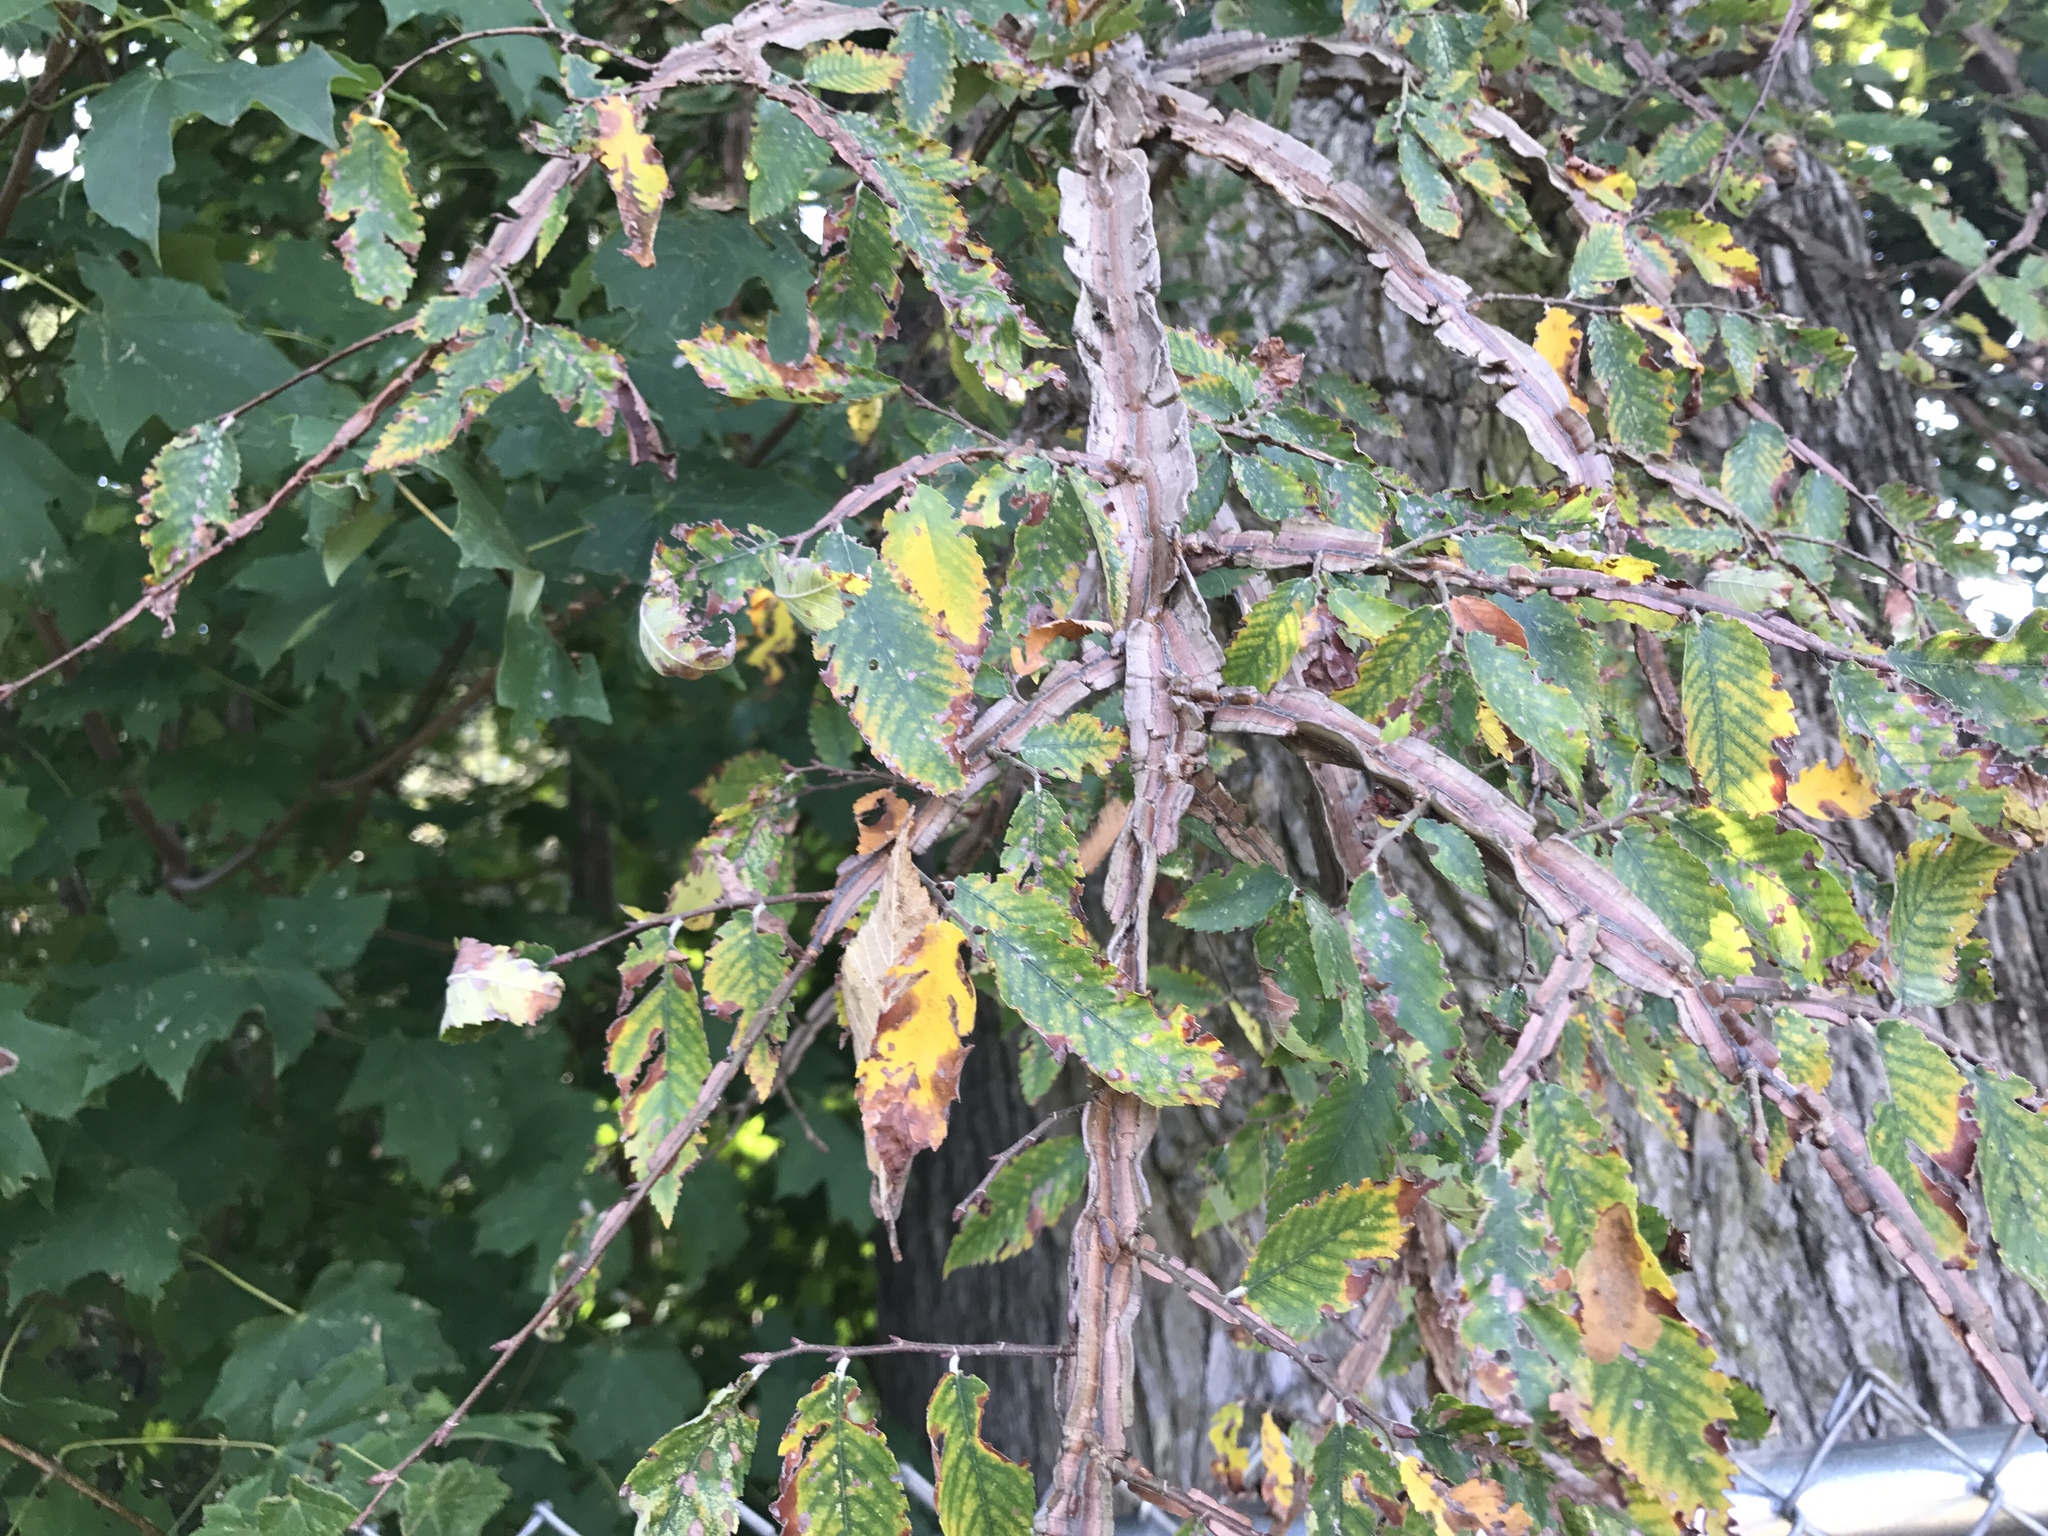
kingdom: Plantae
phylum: Tracheophyta
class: Magnoliopsida
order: Rosales
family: Ulmaceae
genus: Ulmus
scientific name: Ulmus alata
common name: Winged elm
